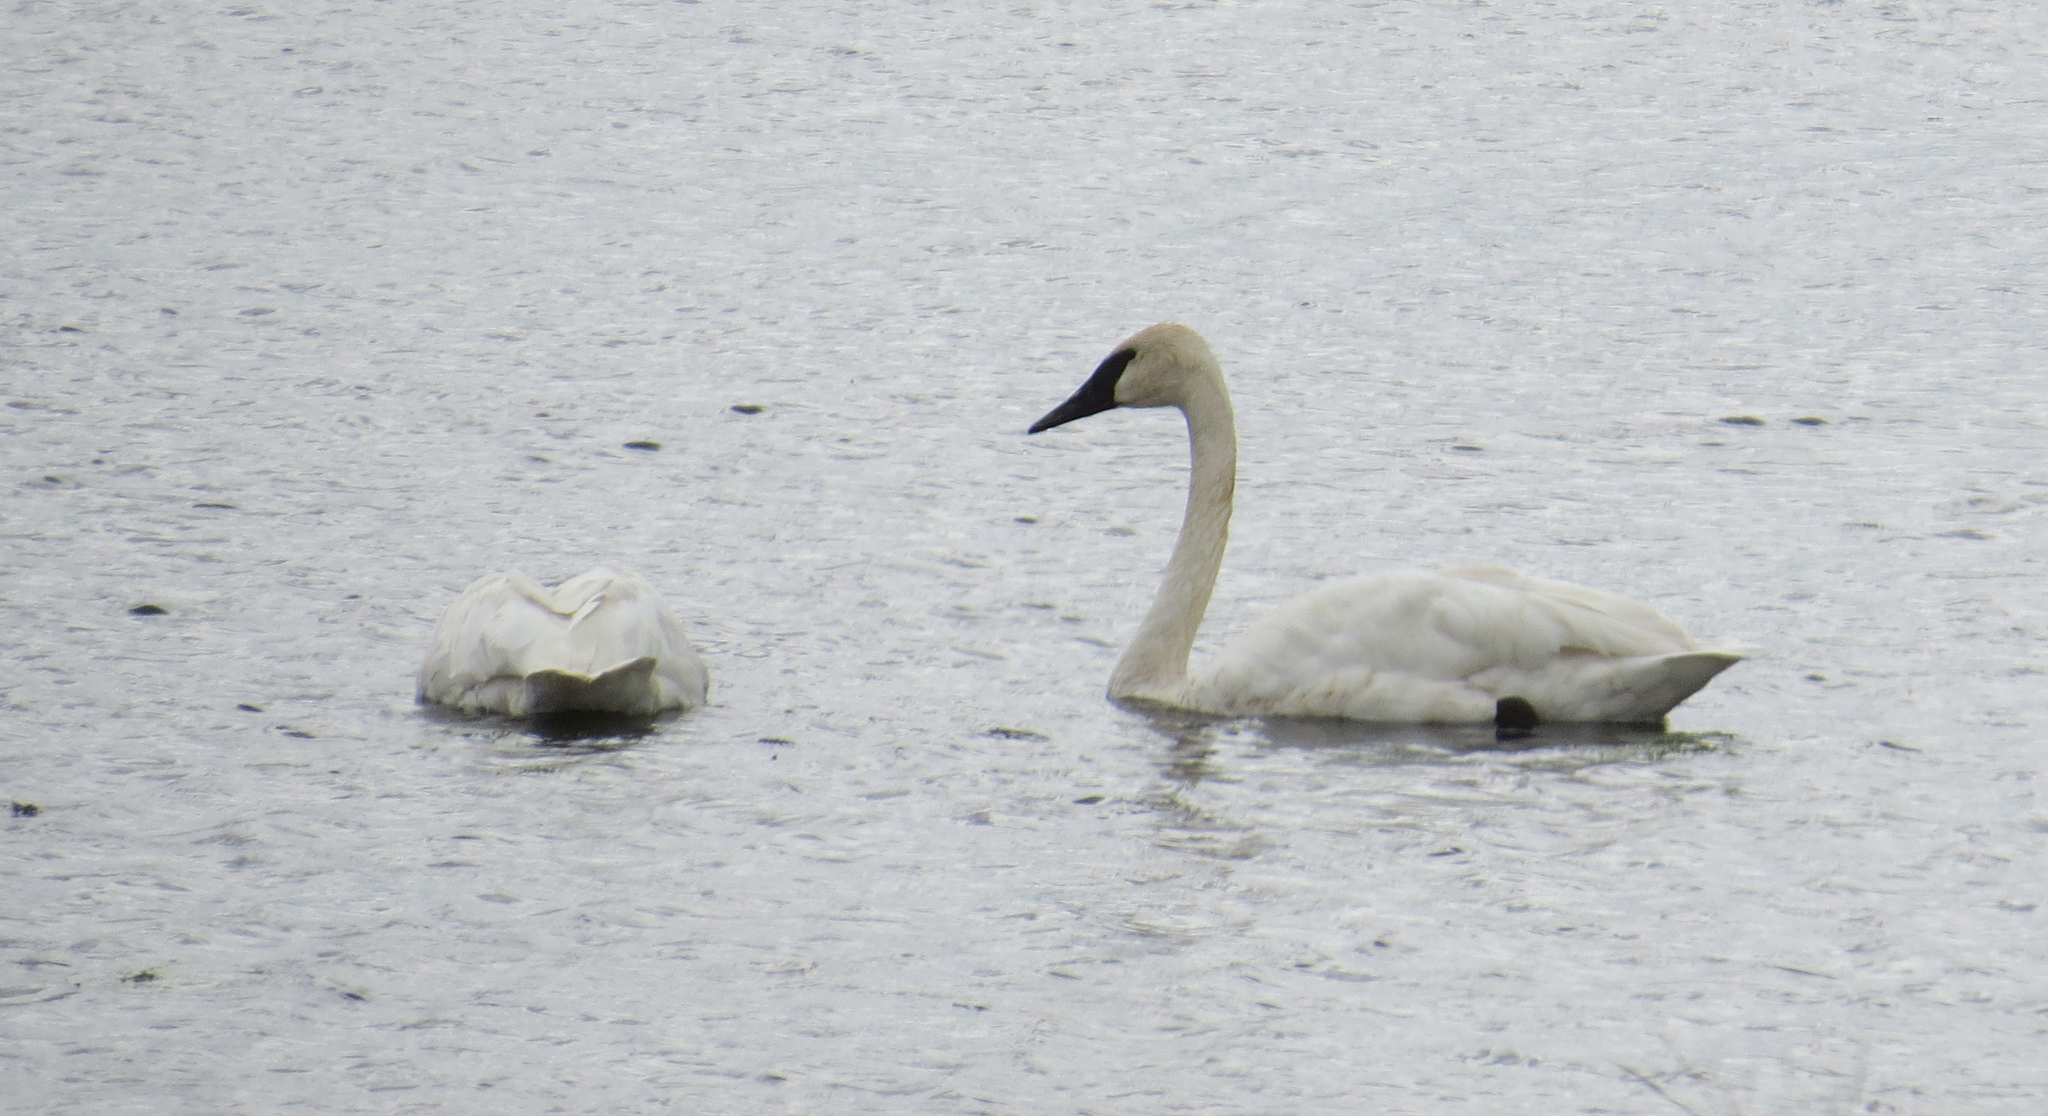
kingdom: Animalia
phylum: Chordata
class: Aves
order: Anseriformes
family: Anatidae
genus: Cygnus
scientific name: Cygnus buccinator
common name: Trumpeter swan
